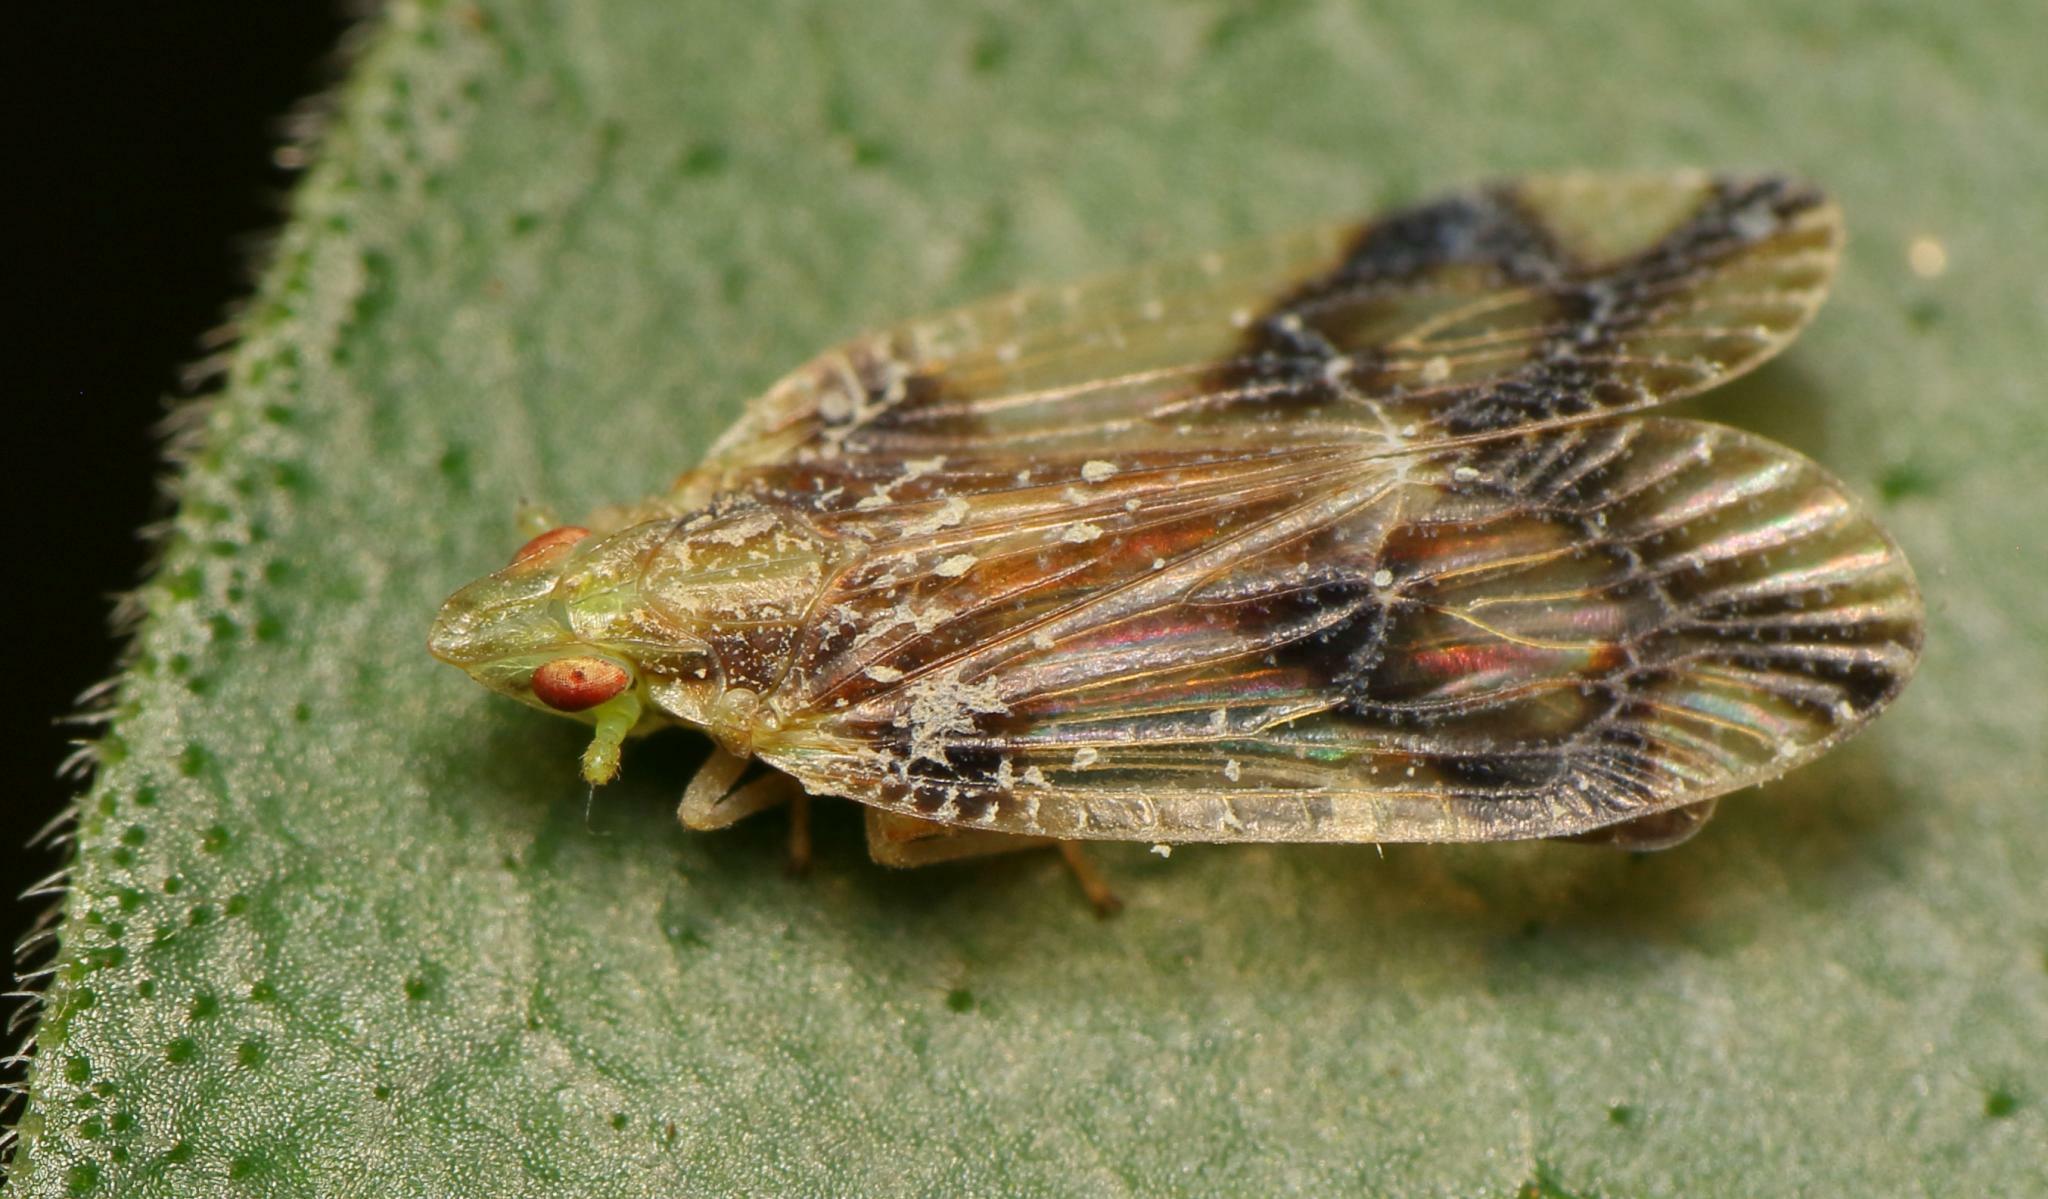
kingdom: Animalia
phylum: Arthropoda
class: Insecta
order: Hemiptera
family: Tropiduchidae
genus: Numicia
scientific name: Numicia insignis
